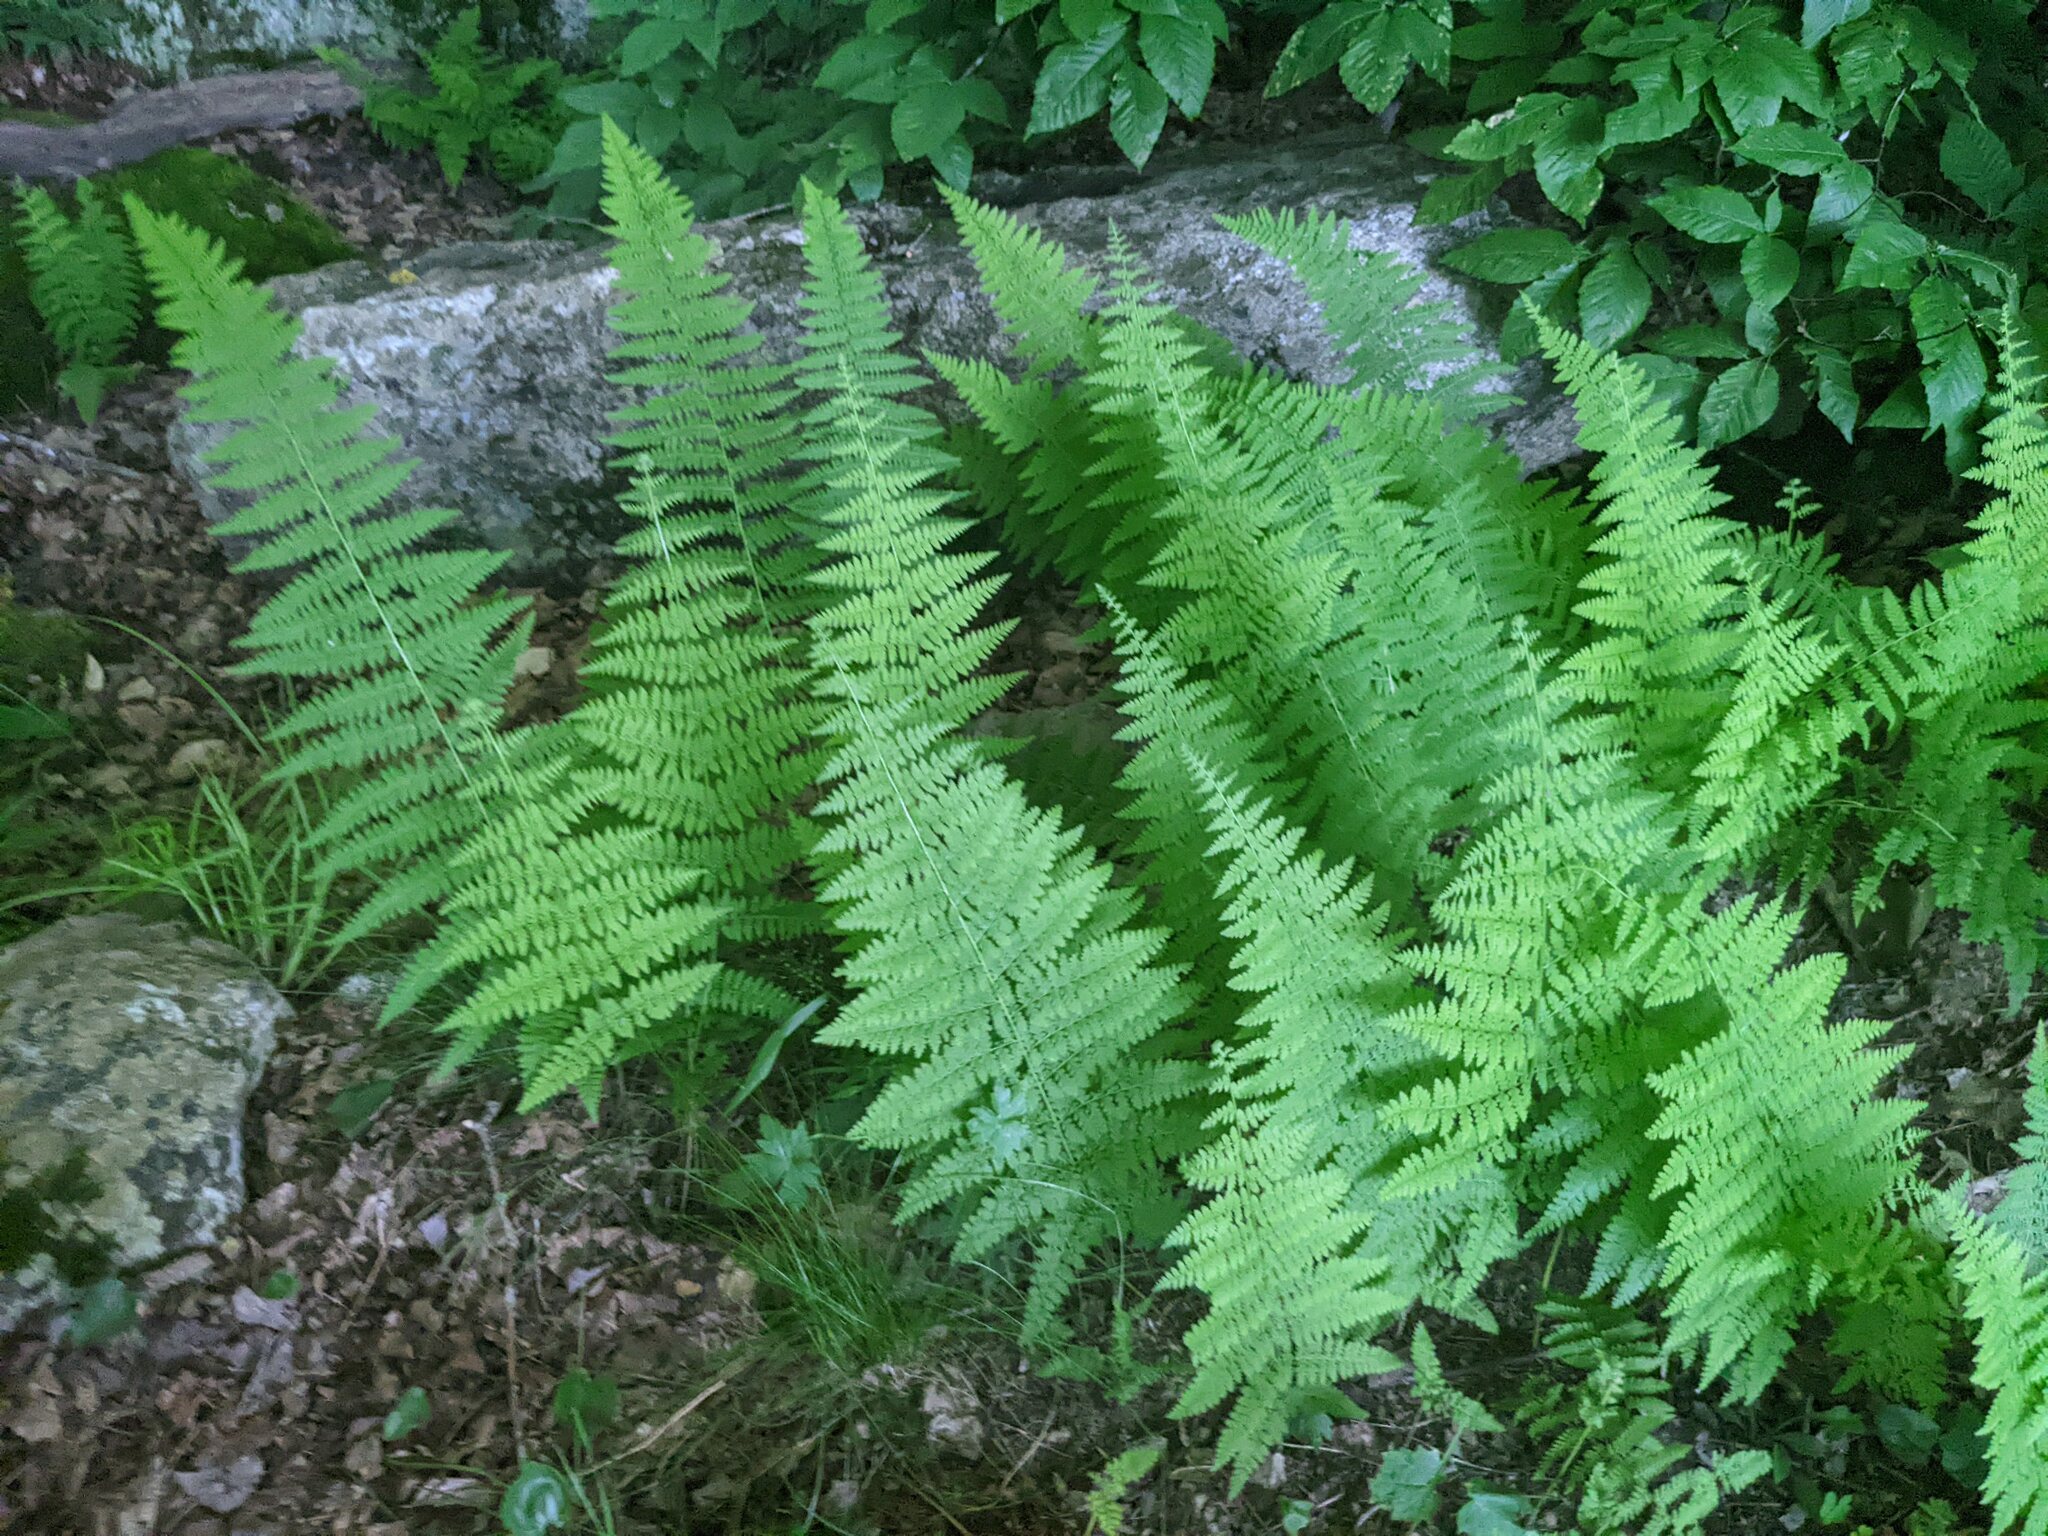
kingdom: Plantae
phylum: Tracheophyta
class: Polypodiopsida
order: Polypodiales
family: Dennstaedtiaceae
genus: Sitobolium
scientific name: Sitobolium punctilobum
